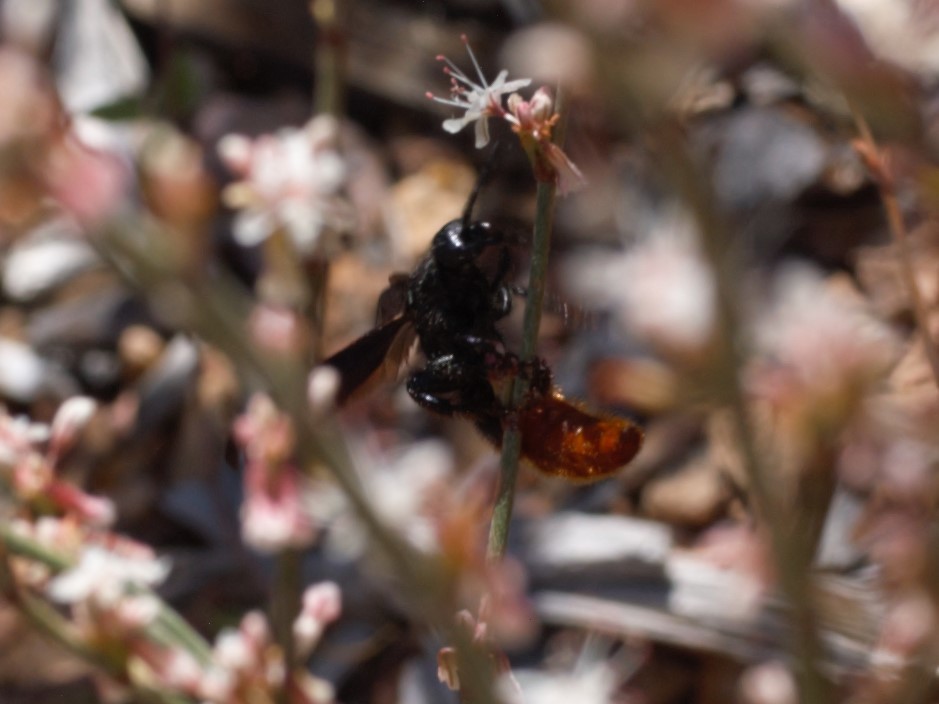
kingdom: Animalia
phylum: Arthropoda
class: Insecta
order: Hymenoptera
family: Scoliidae
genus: Scolia
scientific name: Scolia dubia
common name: Blue-winged scoliid wasp
